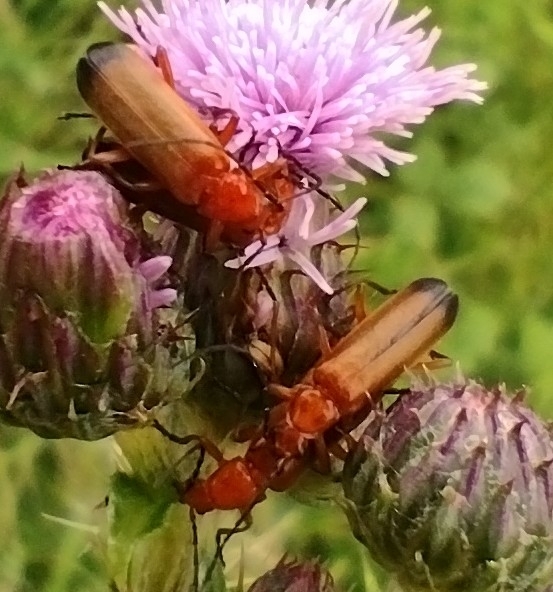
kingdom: Animalia
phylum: Arthropoda
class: Insecta
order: Coleoptera
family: Cantharidae
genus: Rhagonycha
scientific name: Rhagonycha fulva
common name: Common red soldier beetle
